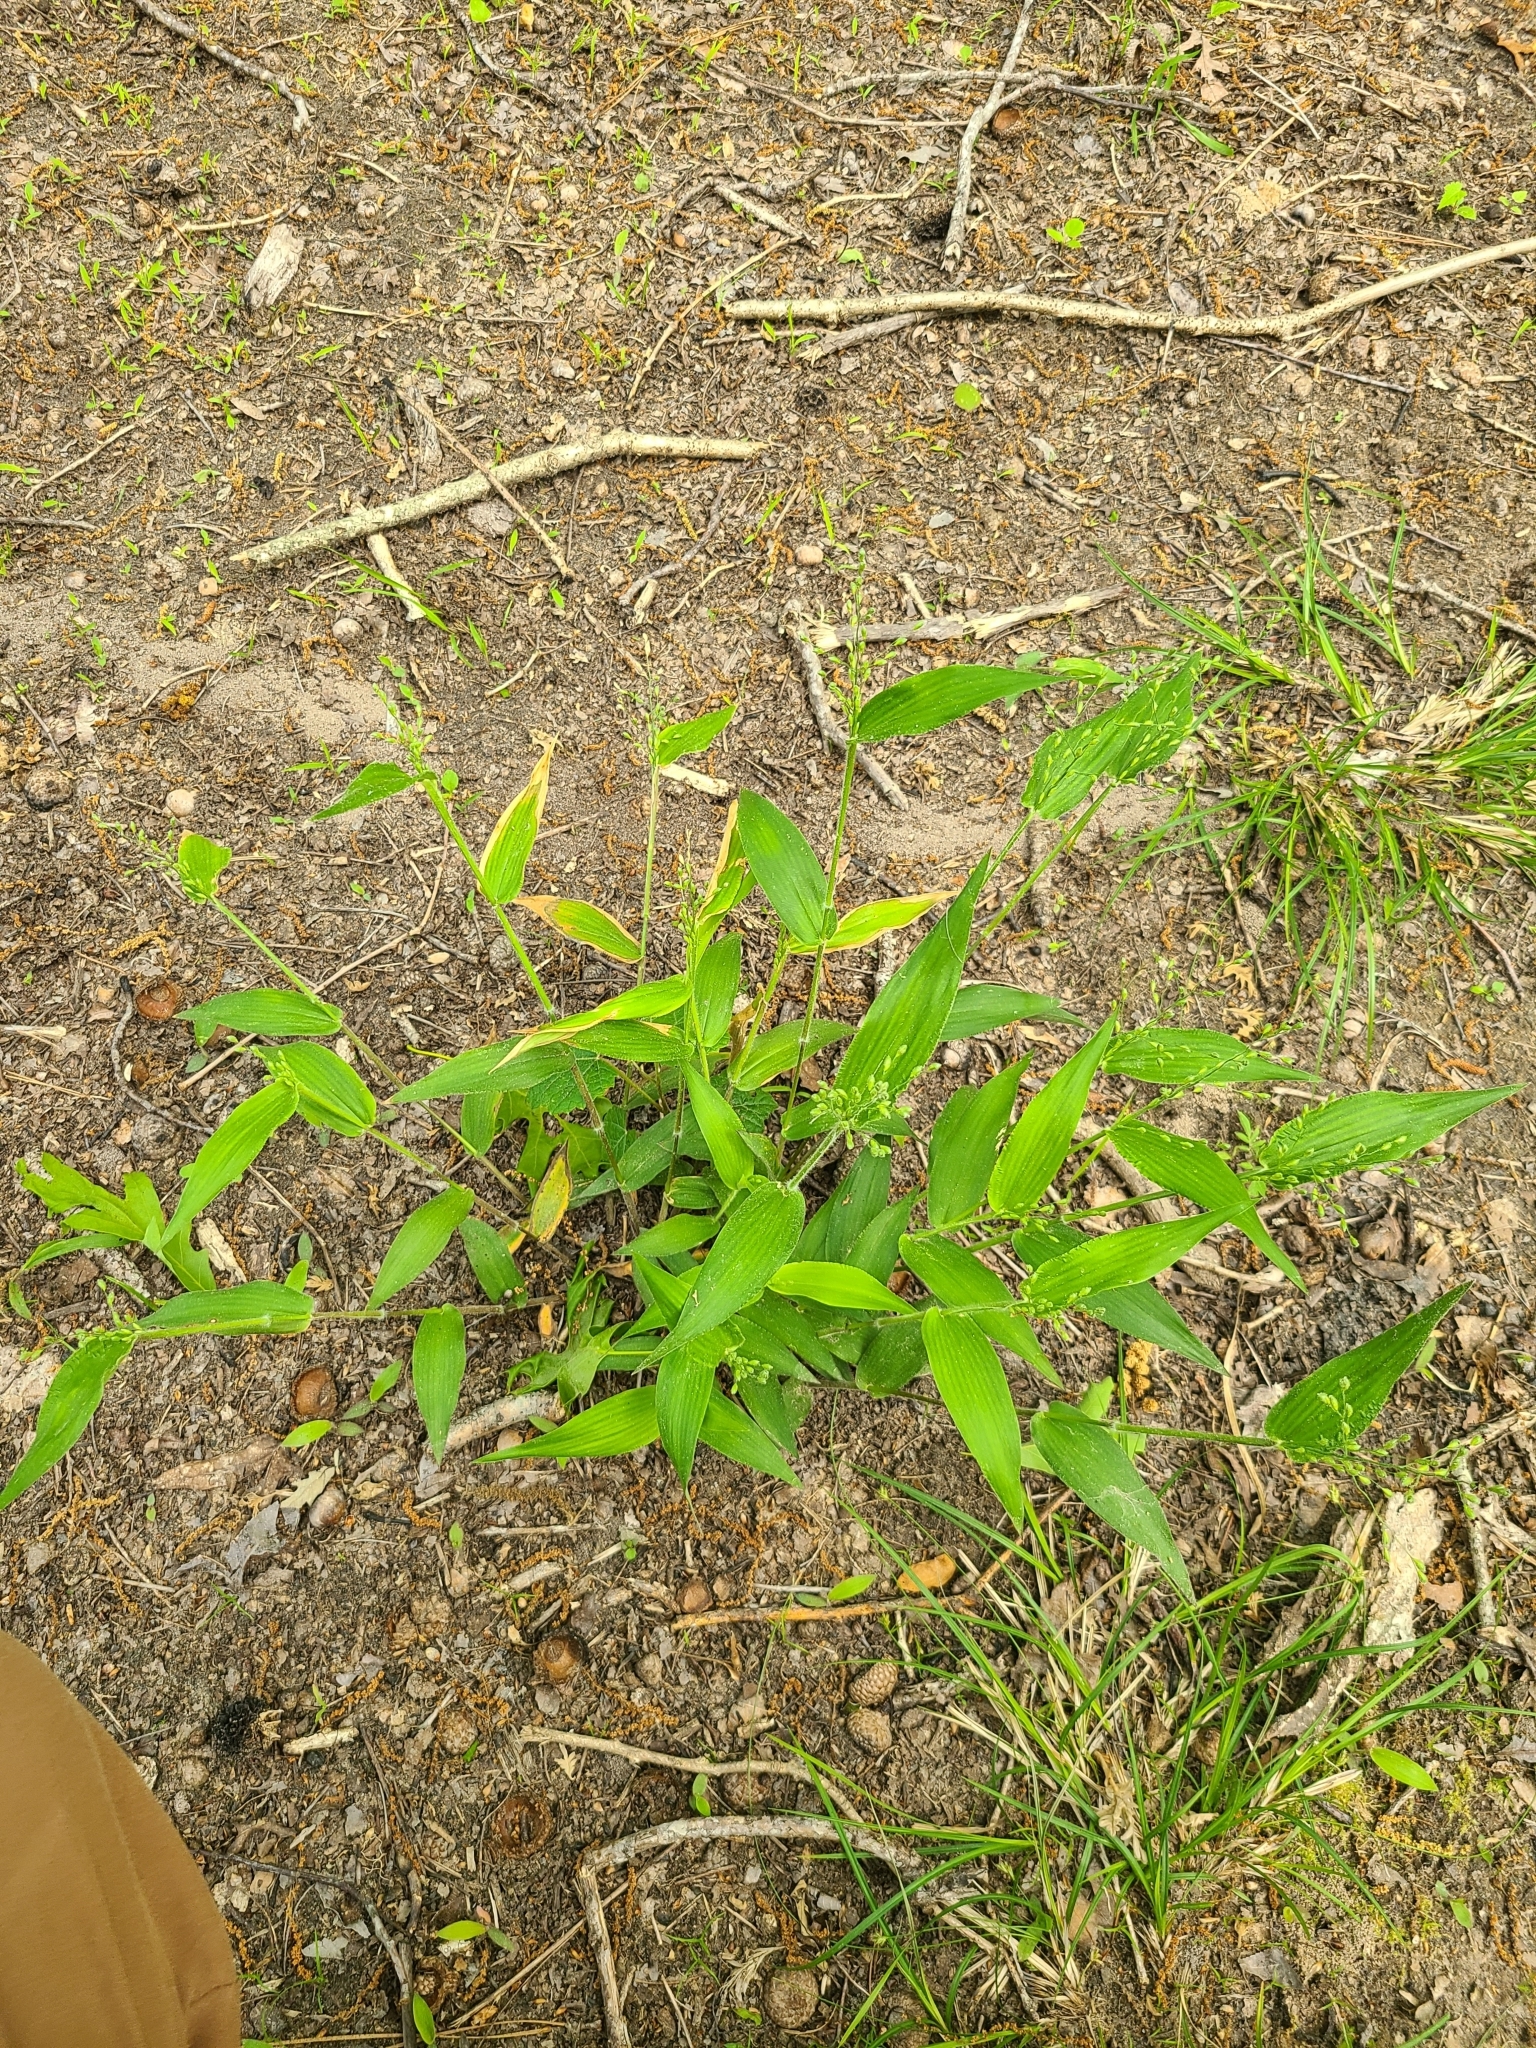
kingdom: Plantae
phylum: Tracheophyta
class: Liliopsida
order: Poales
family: Poaceae
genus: Dichanthelium
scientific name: Dichanthelium boscii
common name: Bosc's panic grass
